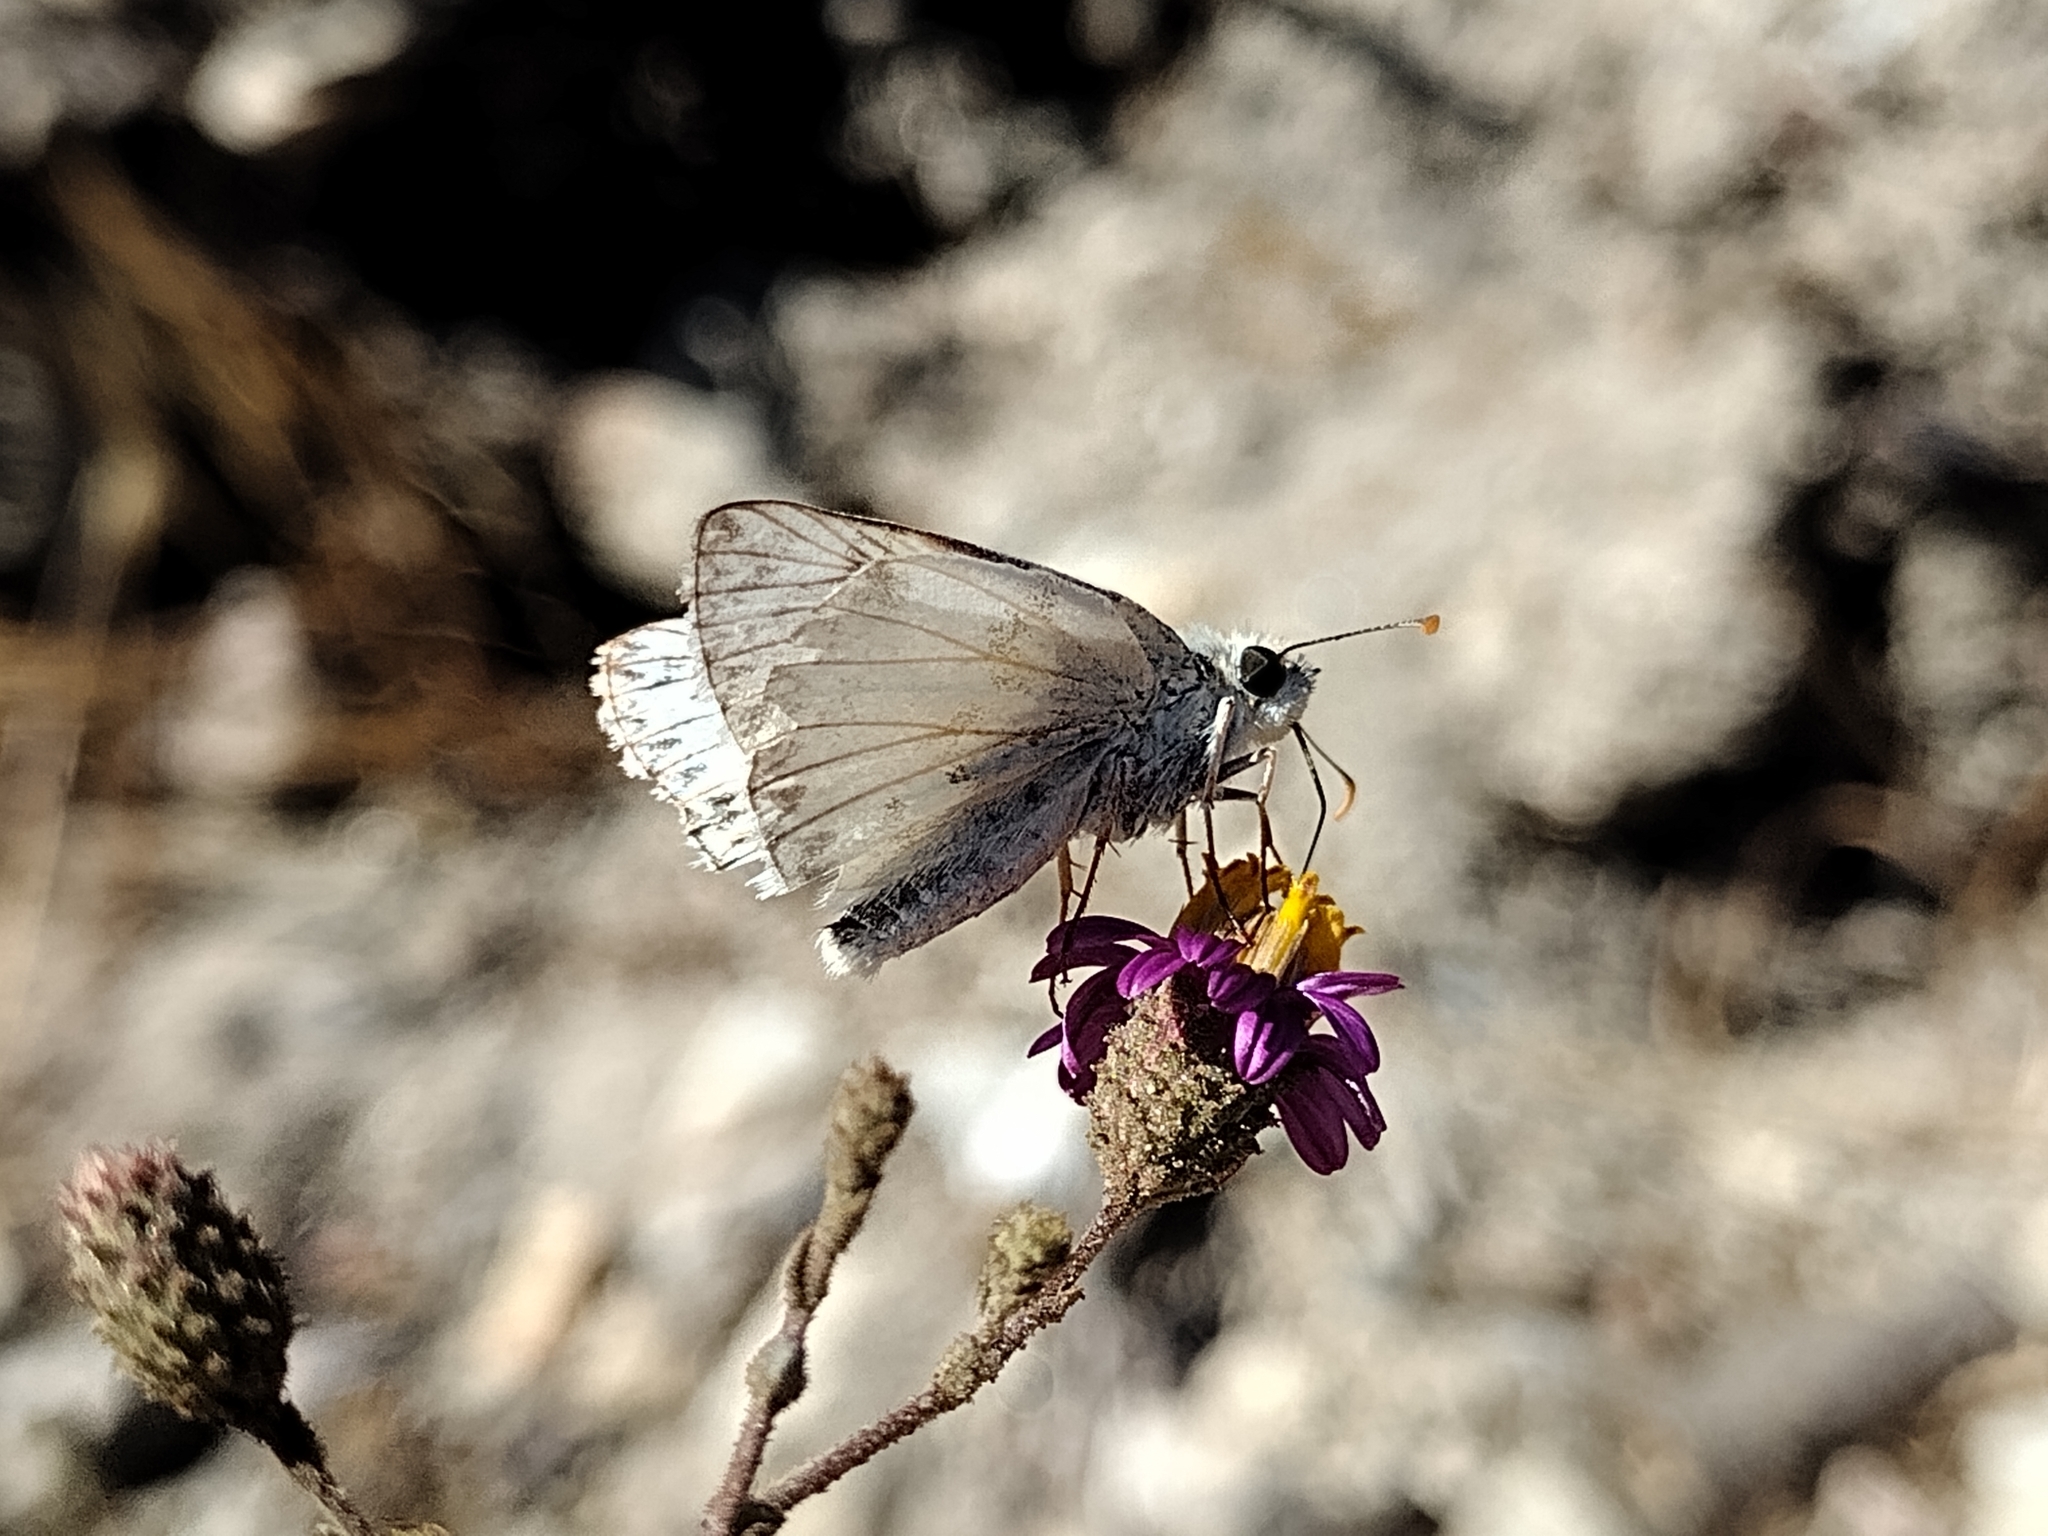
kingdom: Animalia
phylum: Arthropoda
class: Insecta
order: Lepidoptera
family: Hesperiidae
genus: Heliopetes
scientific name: Heliopetes ericetorum
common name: Northern white-skipper
